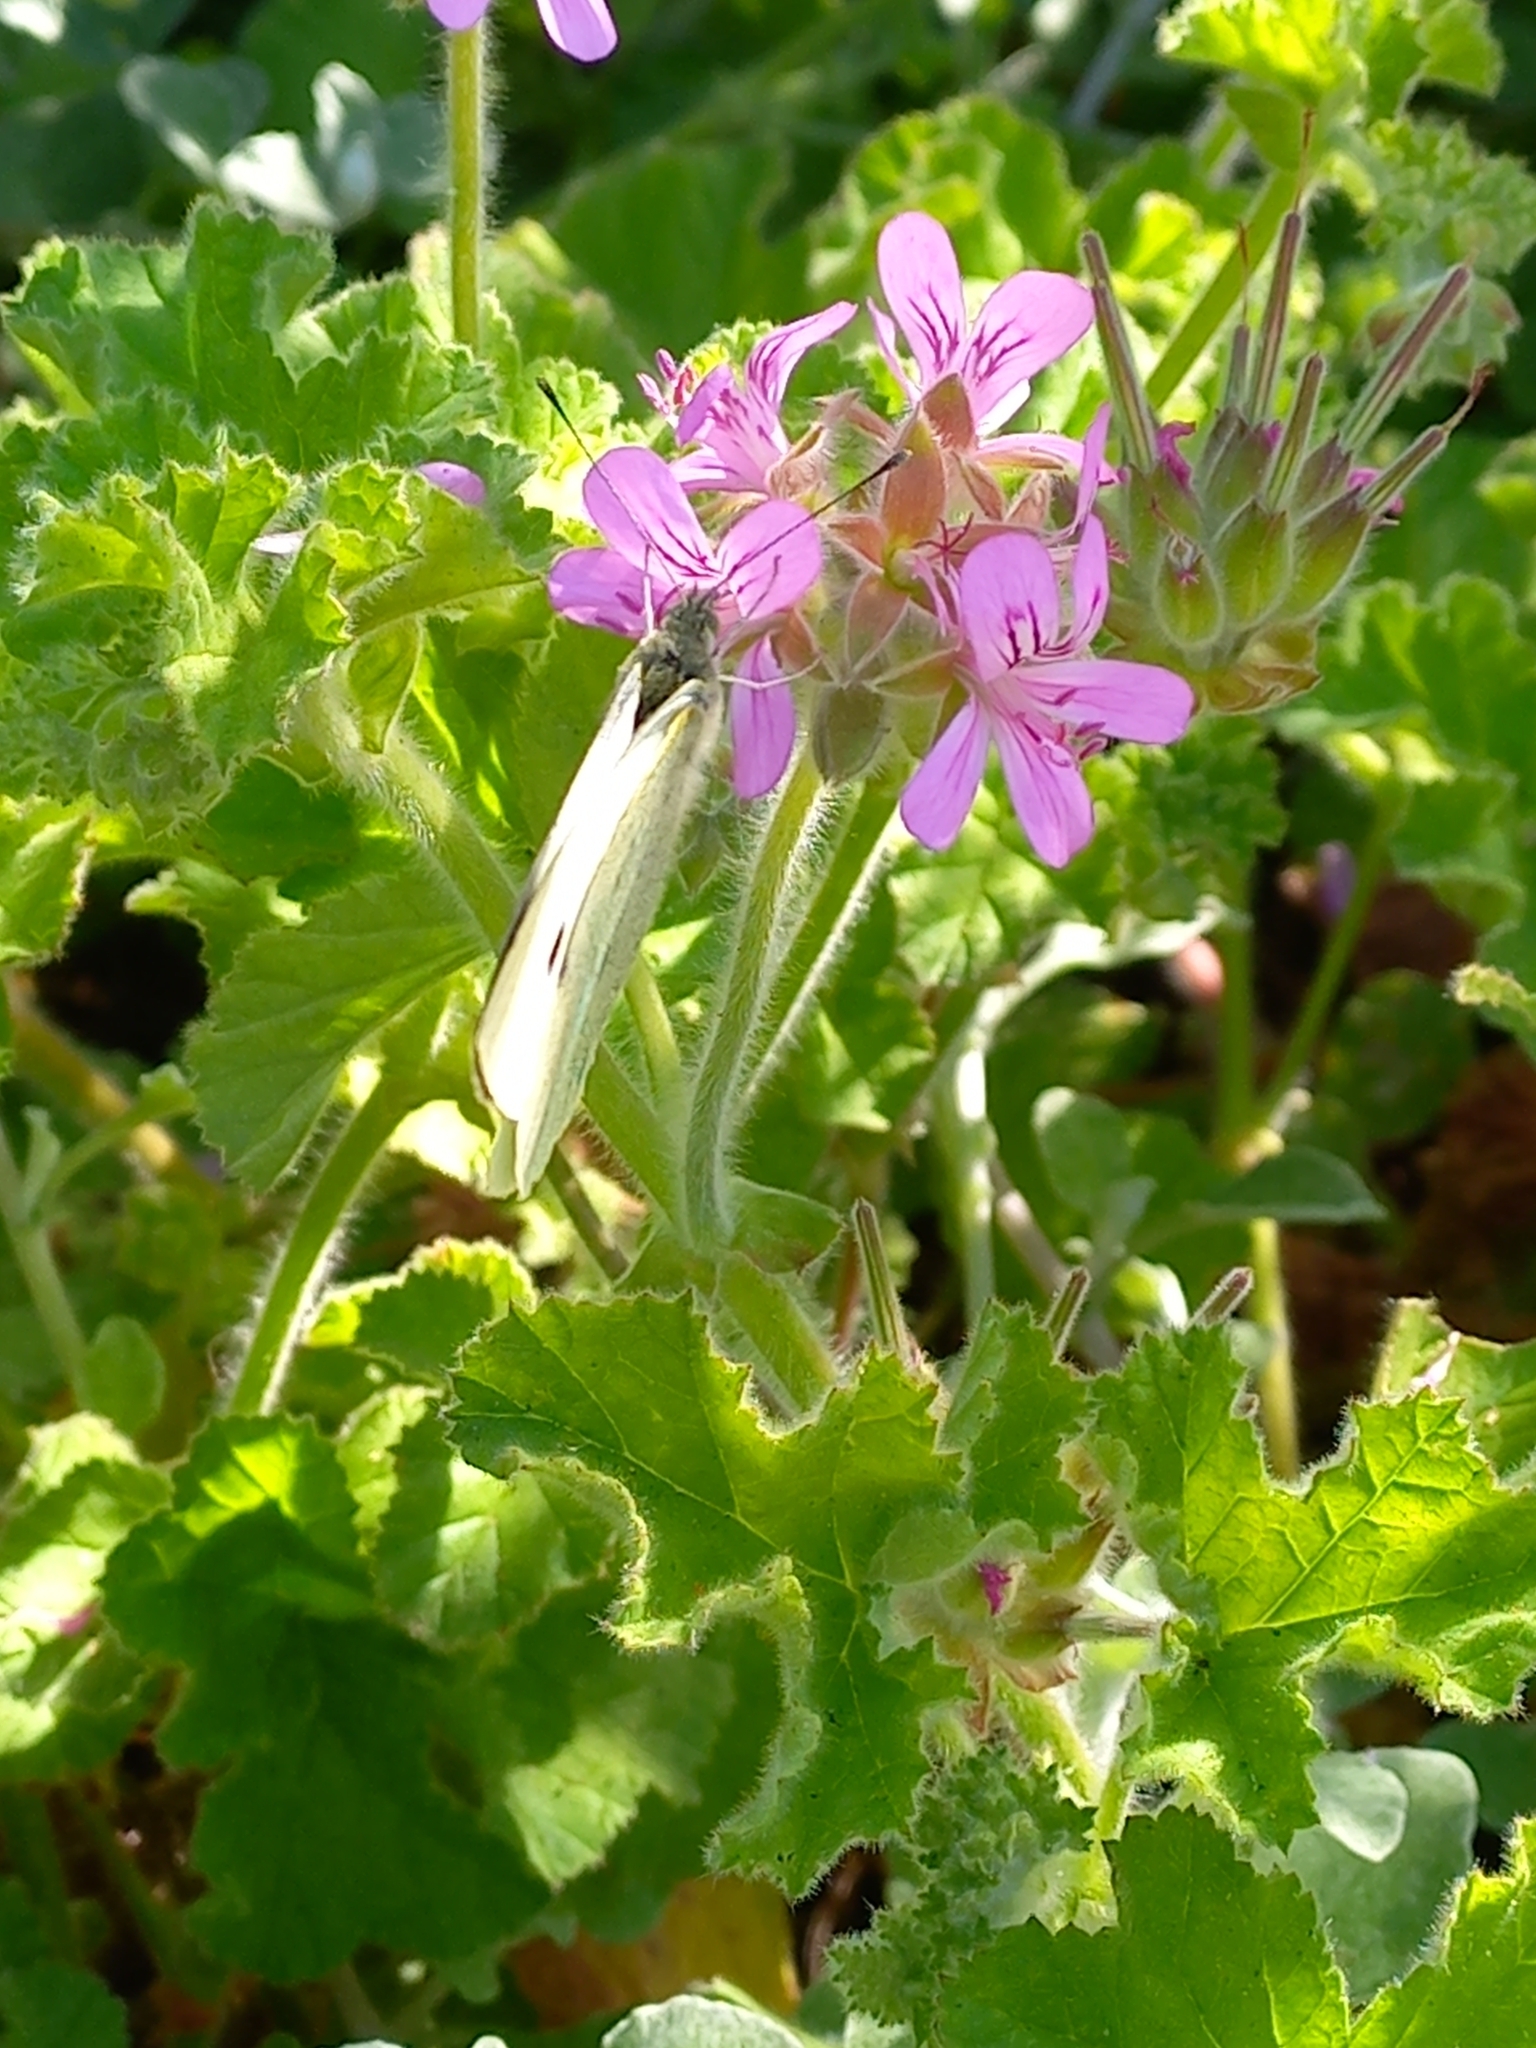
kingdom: Animalia
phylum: Arthropoda
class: Insecta
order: Lepidoptera
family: Pieridae
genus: Pieris
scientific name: Pieris brassicae
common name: Large white
